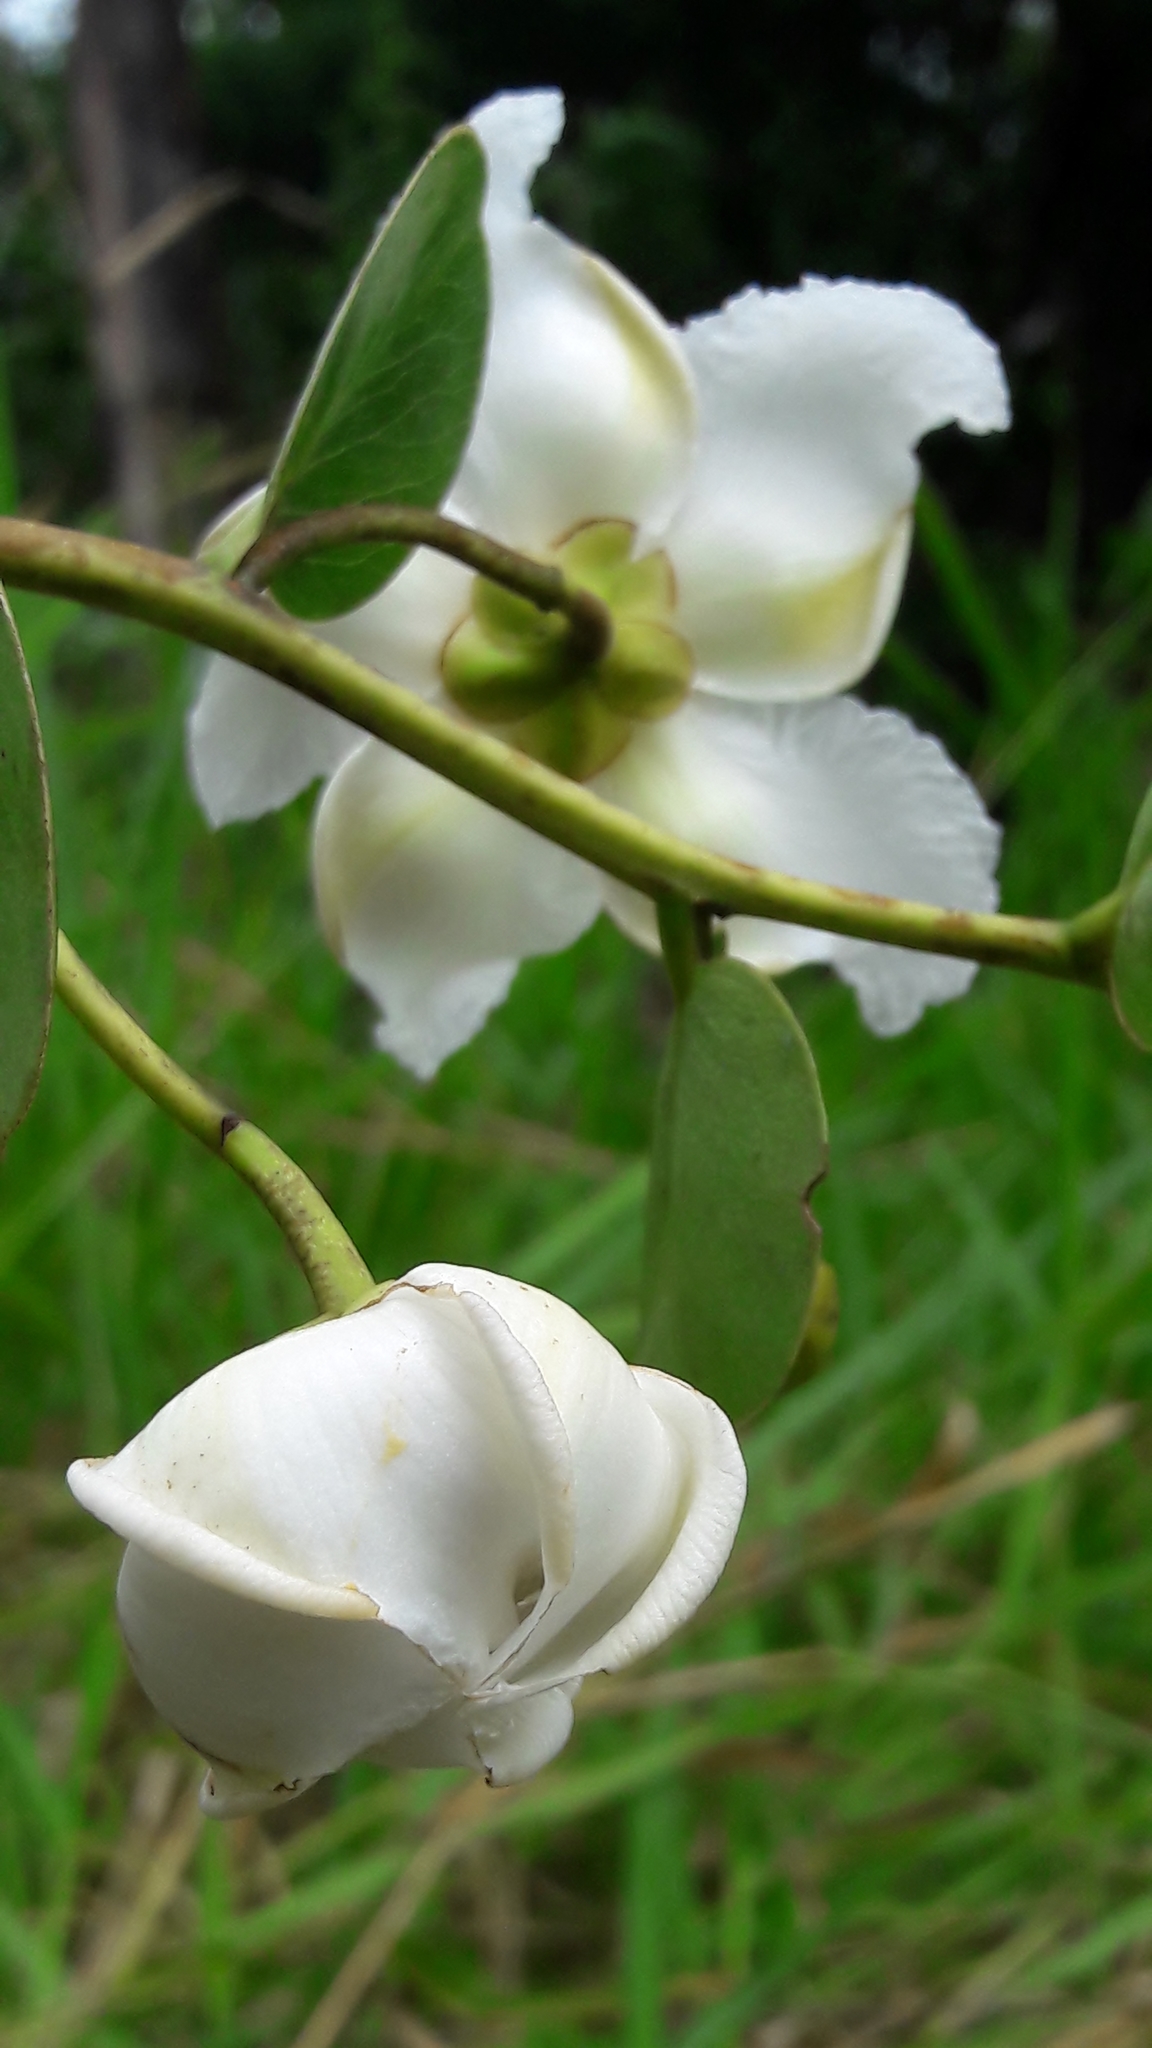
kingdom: Plantae
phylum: Tracheophyta
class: Magnoliopsida
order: Malpighiales
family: Calophyllaceae
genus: Kielmeyera
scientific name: Kielmeyera variabilis
